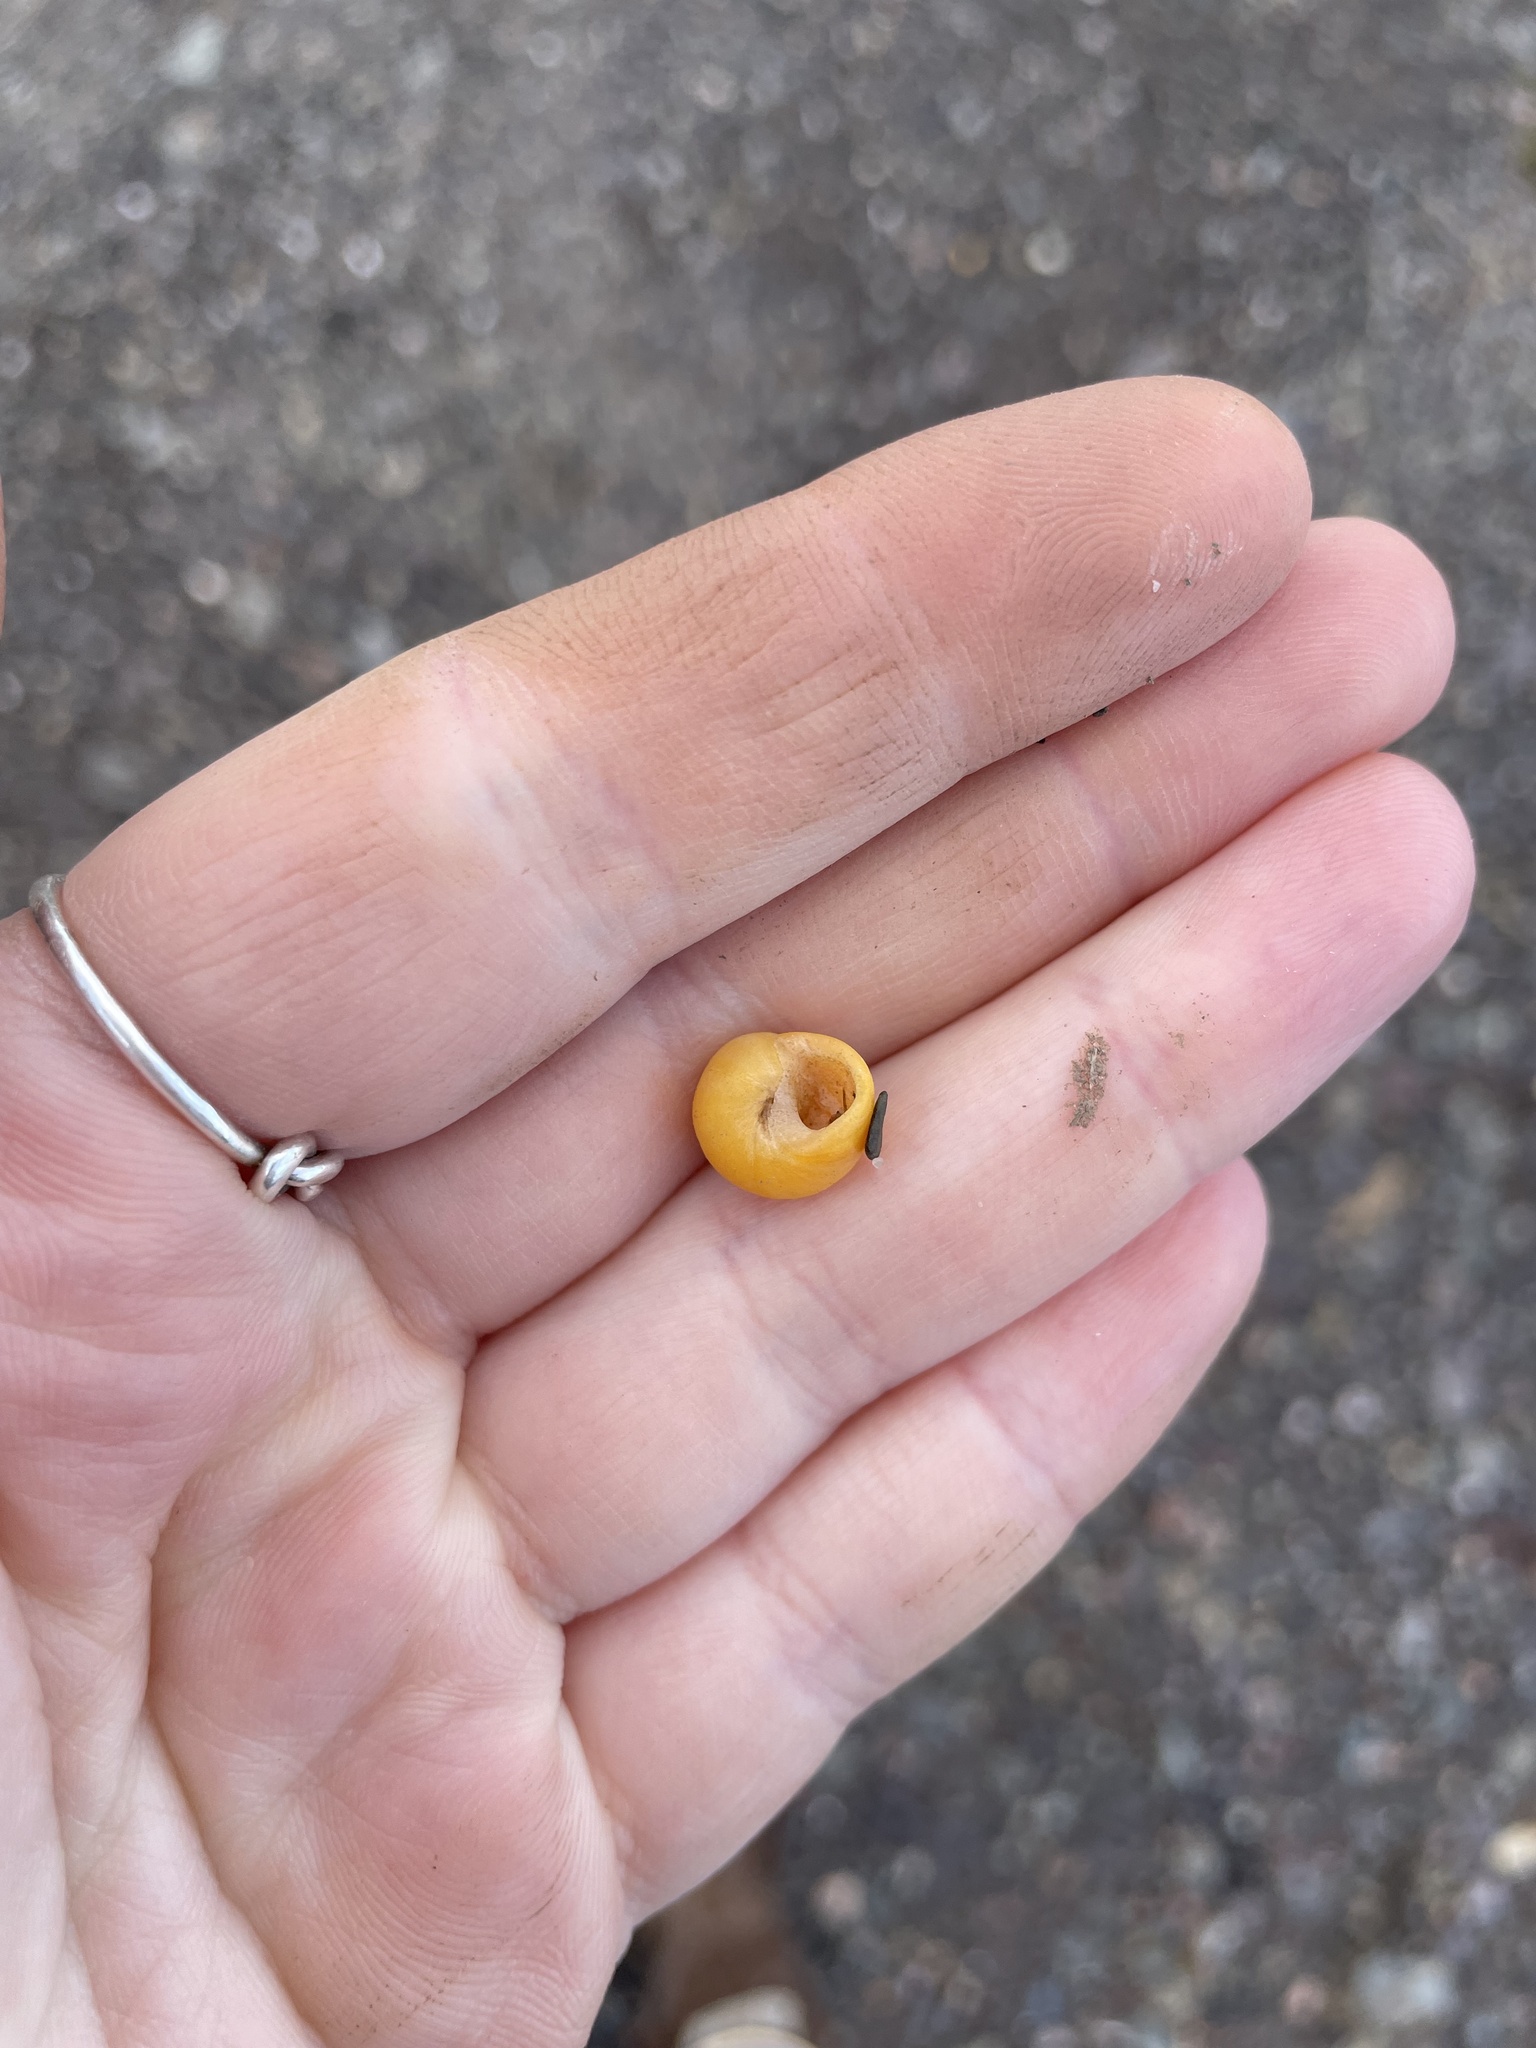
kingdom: Animalia
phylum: Mollusca
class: Gastropoda
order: Littorinimorpha
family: Littorinidae
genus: Littorina
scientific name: Littorina obtusata
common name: Flat periwinkle
